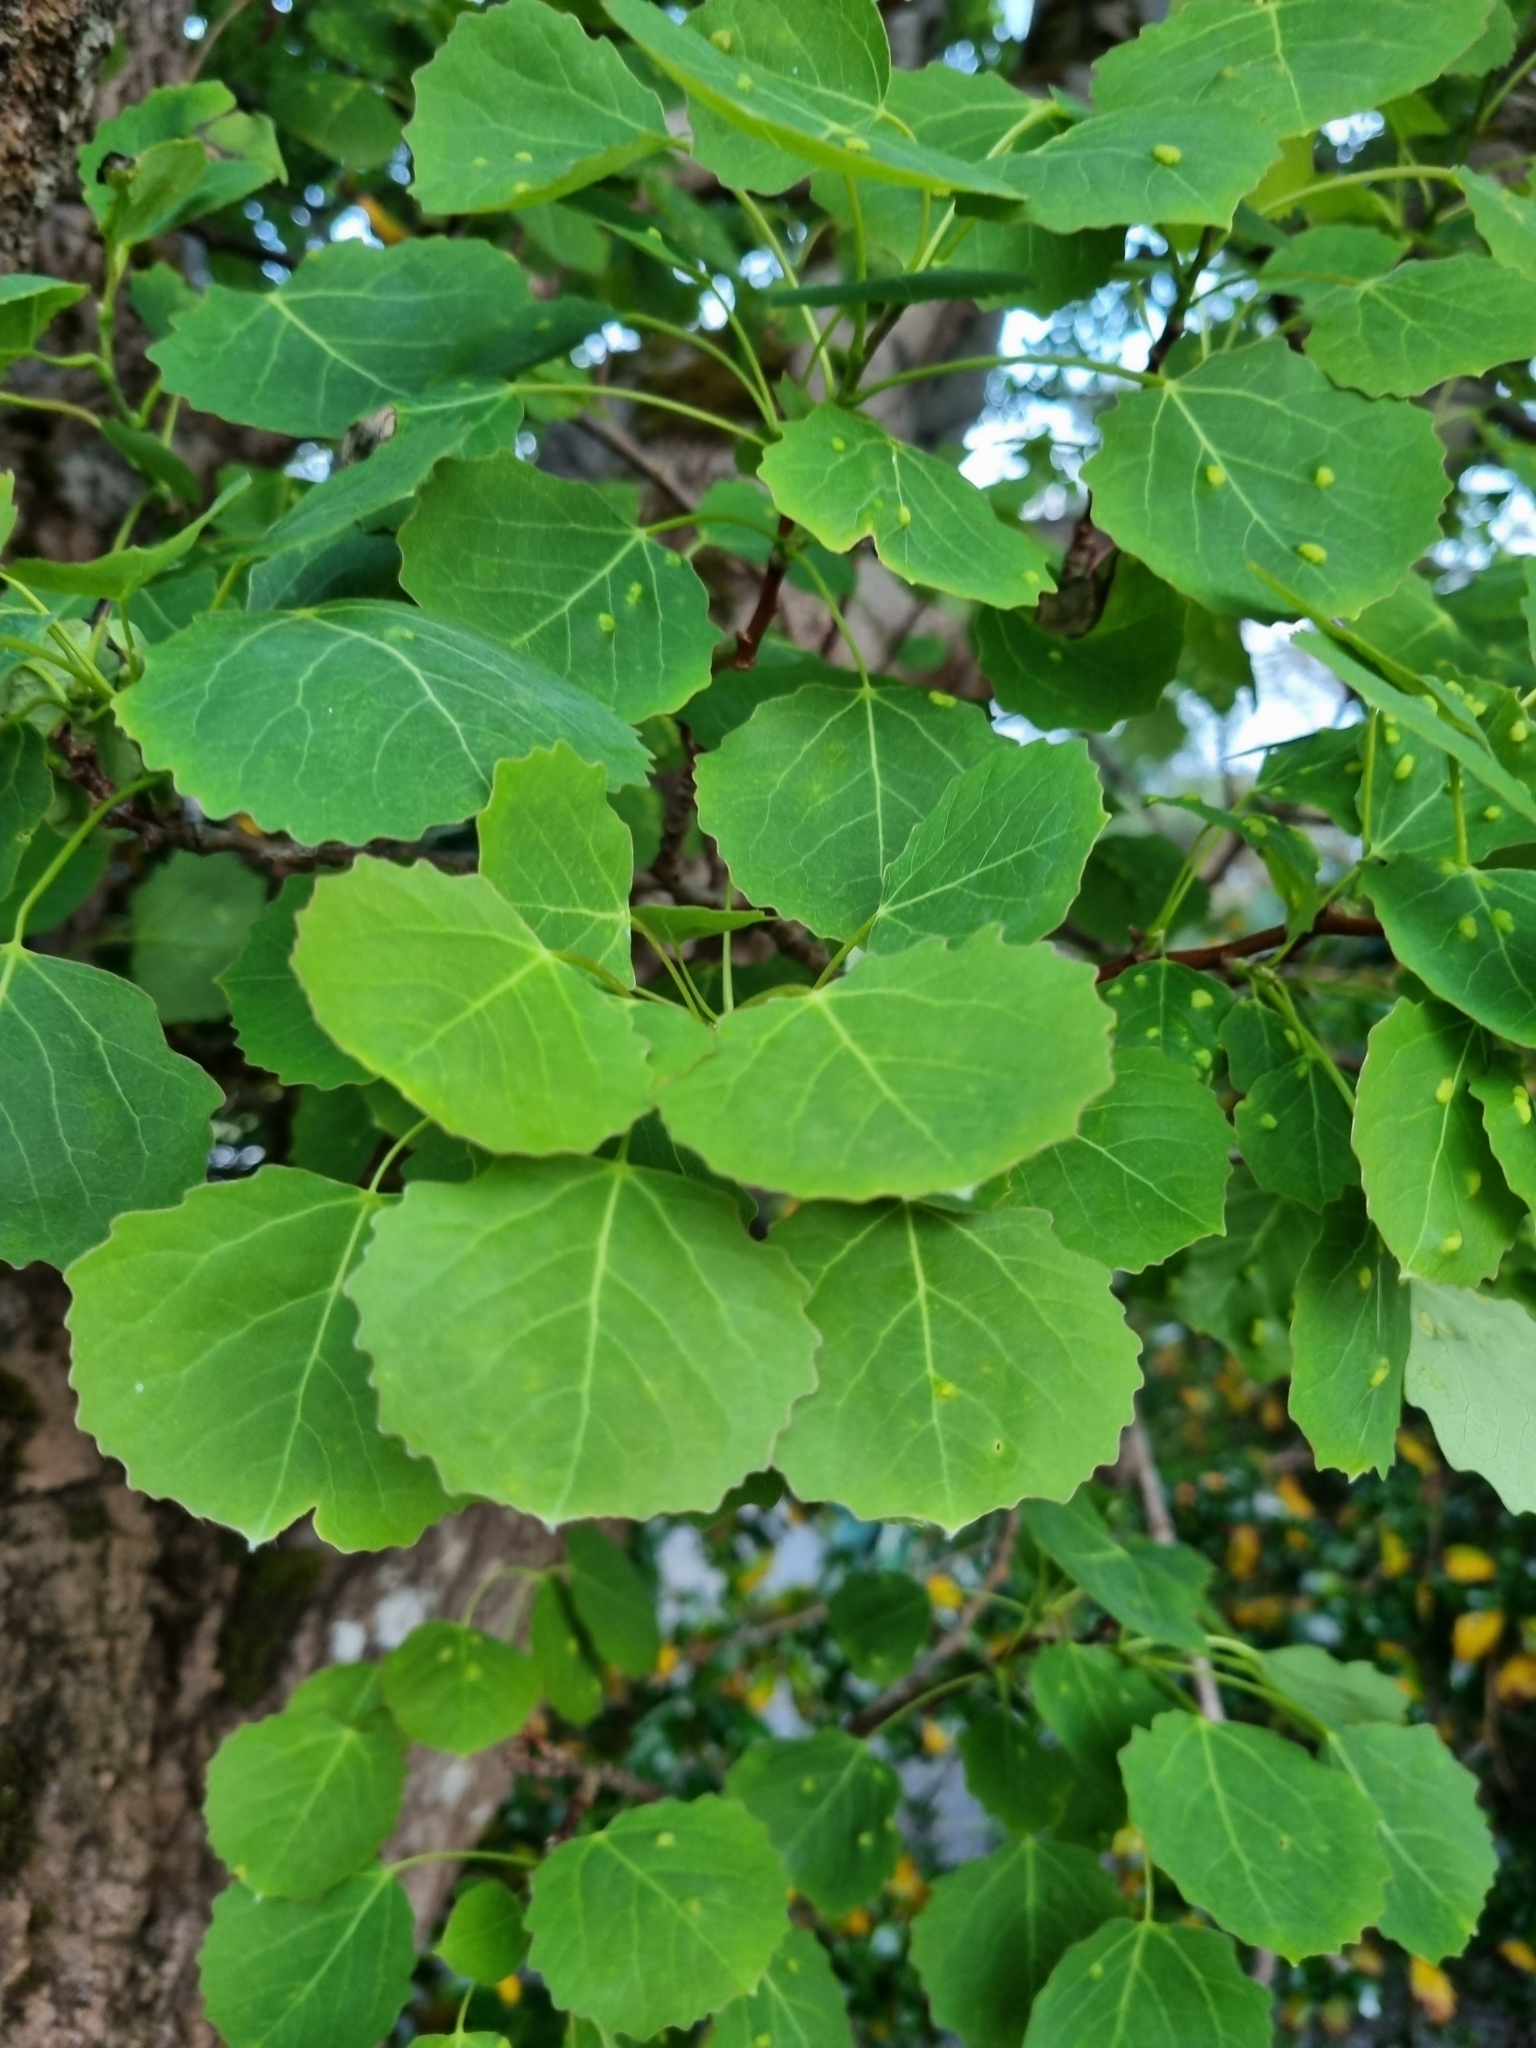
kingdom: Plantae
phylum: Tracheophyta
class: Magnoliopsida
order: Malpighiales
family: Salicaceae
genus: Populus
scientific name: Populus tremula
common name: European aspen
